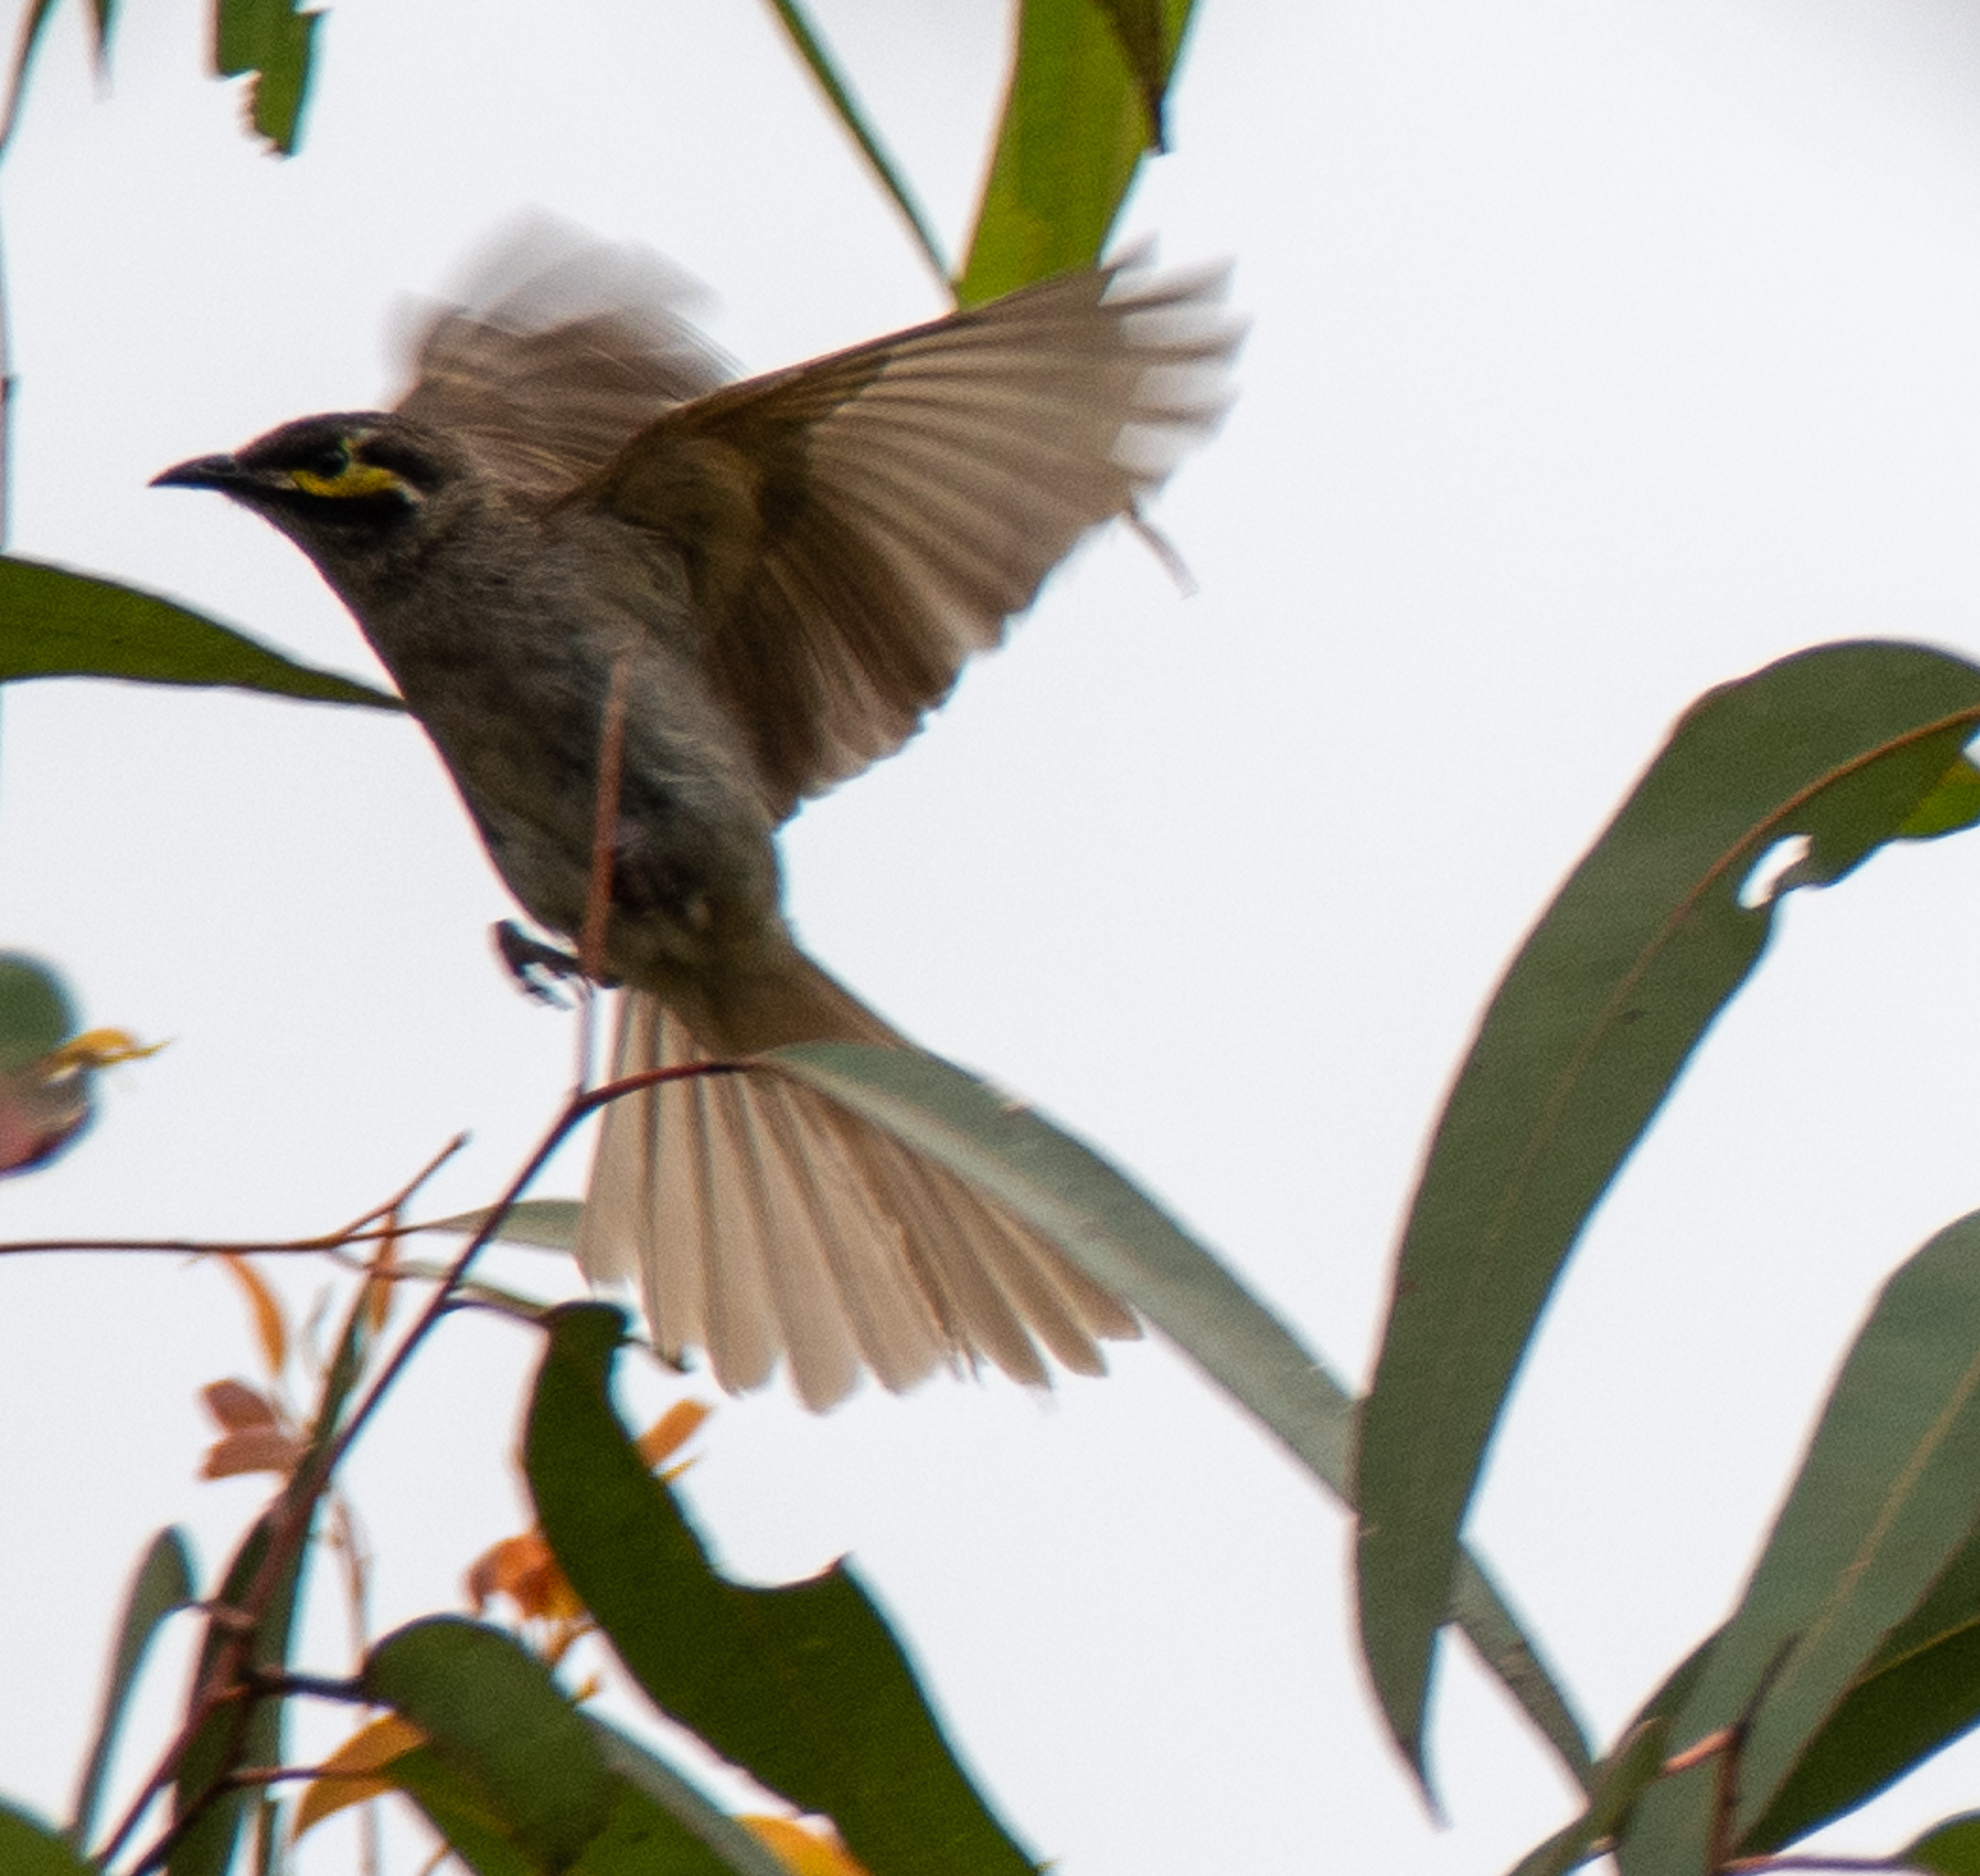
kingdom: Animalia
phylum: Chordata
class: Aves
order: Passeriformes
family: Meliphagidae
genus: Caligavis
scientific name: Caligavis chrysops
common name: Yellow-faced honeyeater
